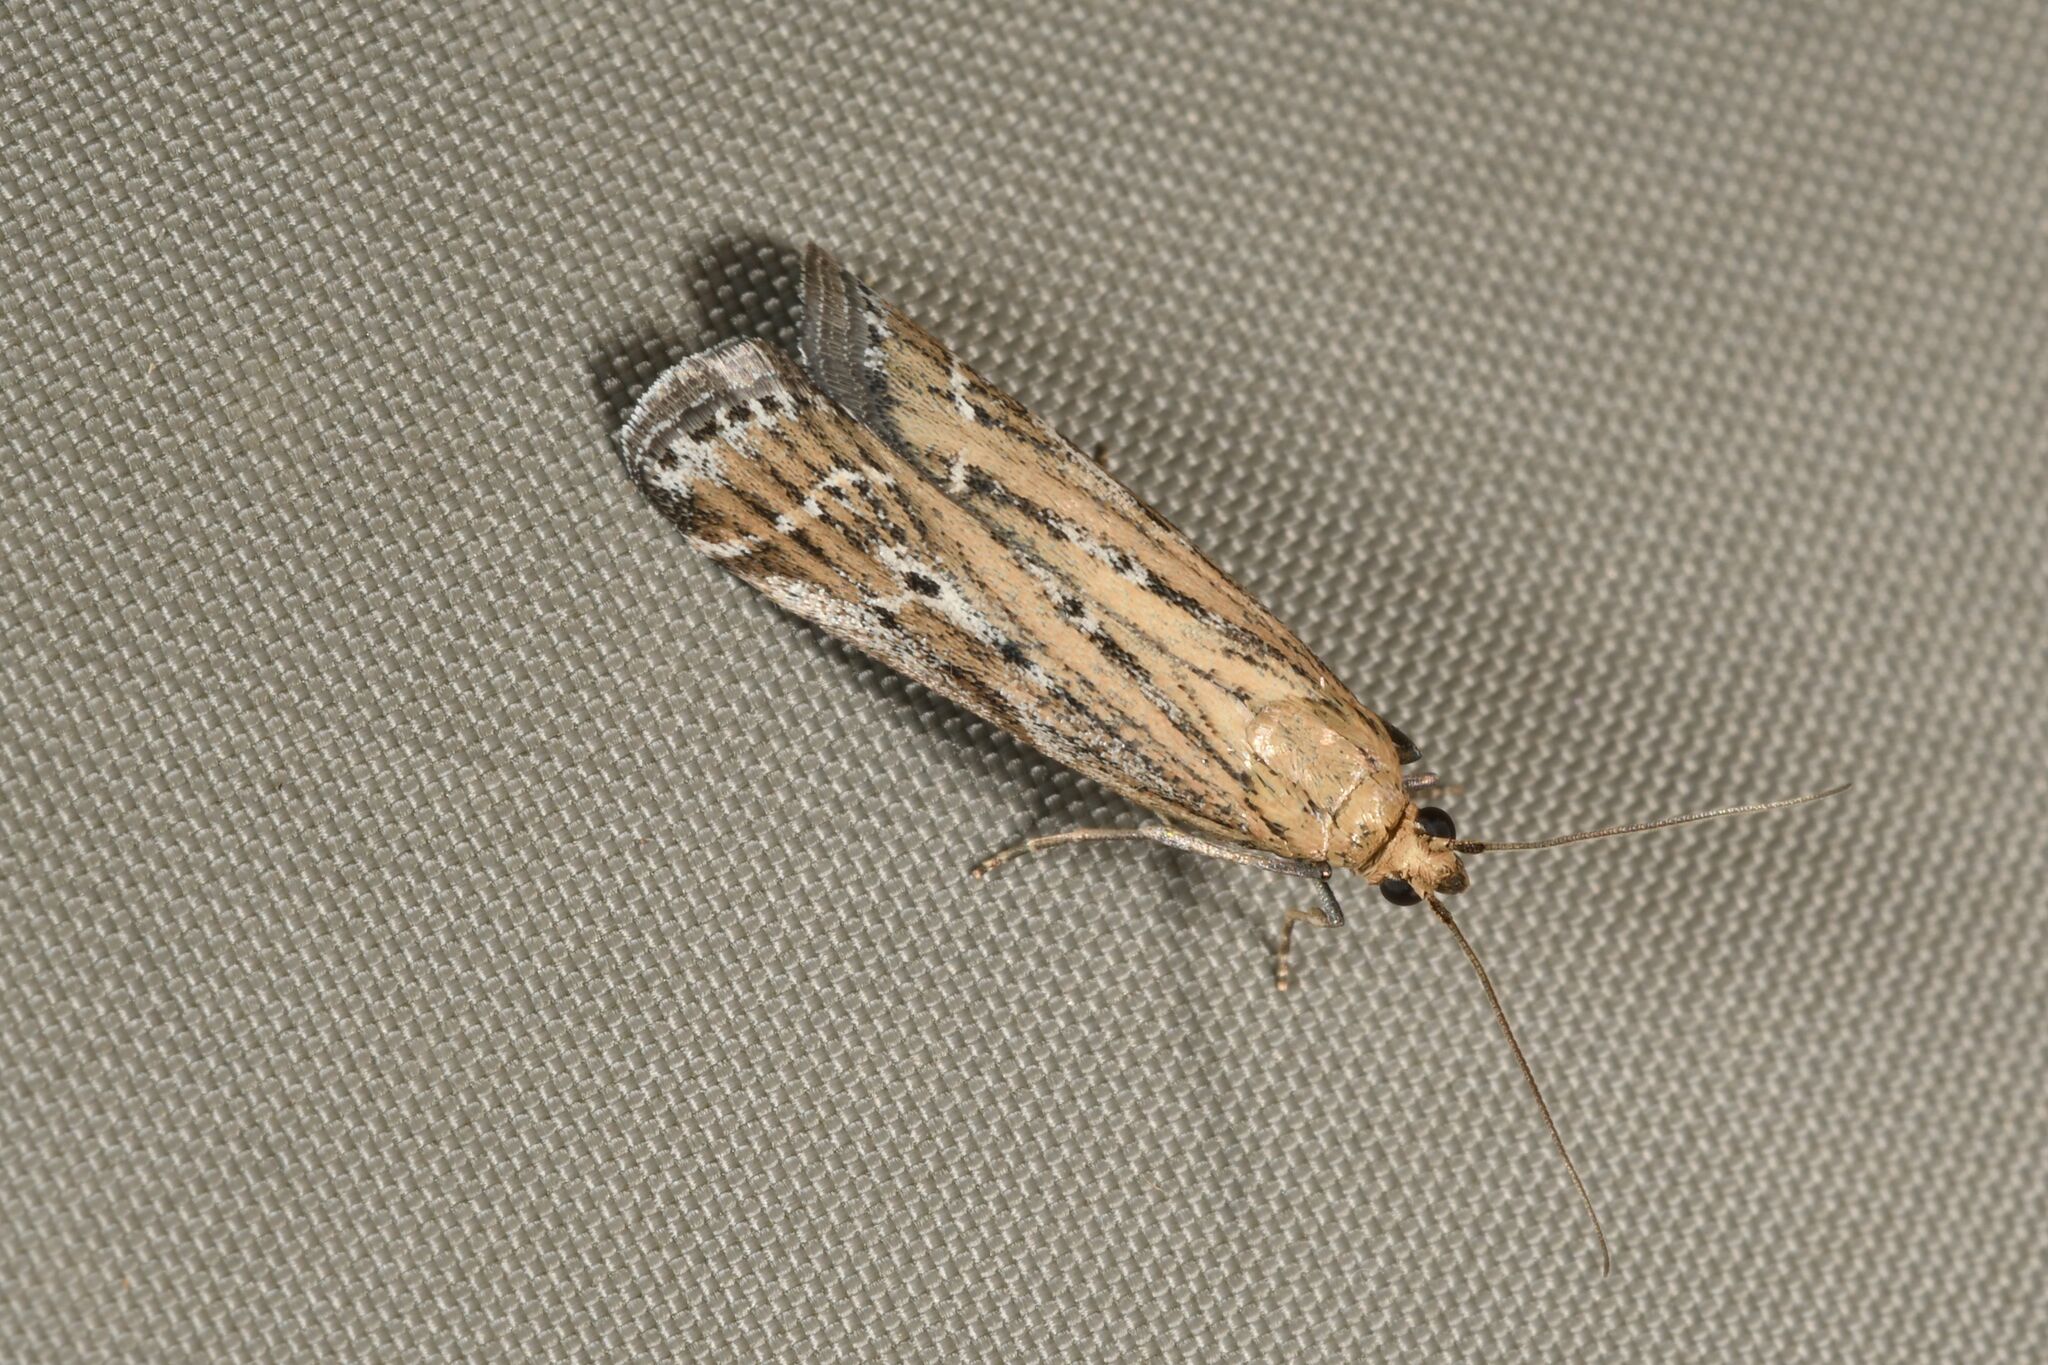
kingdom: Animalia
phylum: Arthropoda
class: Insecta
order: Lepidoptera
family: Pyralidae
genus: Pempelia
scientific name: Pempelia ornatella
